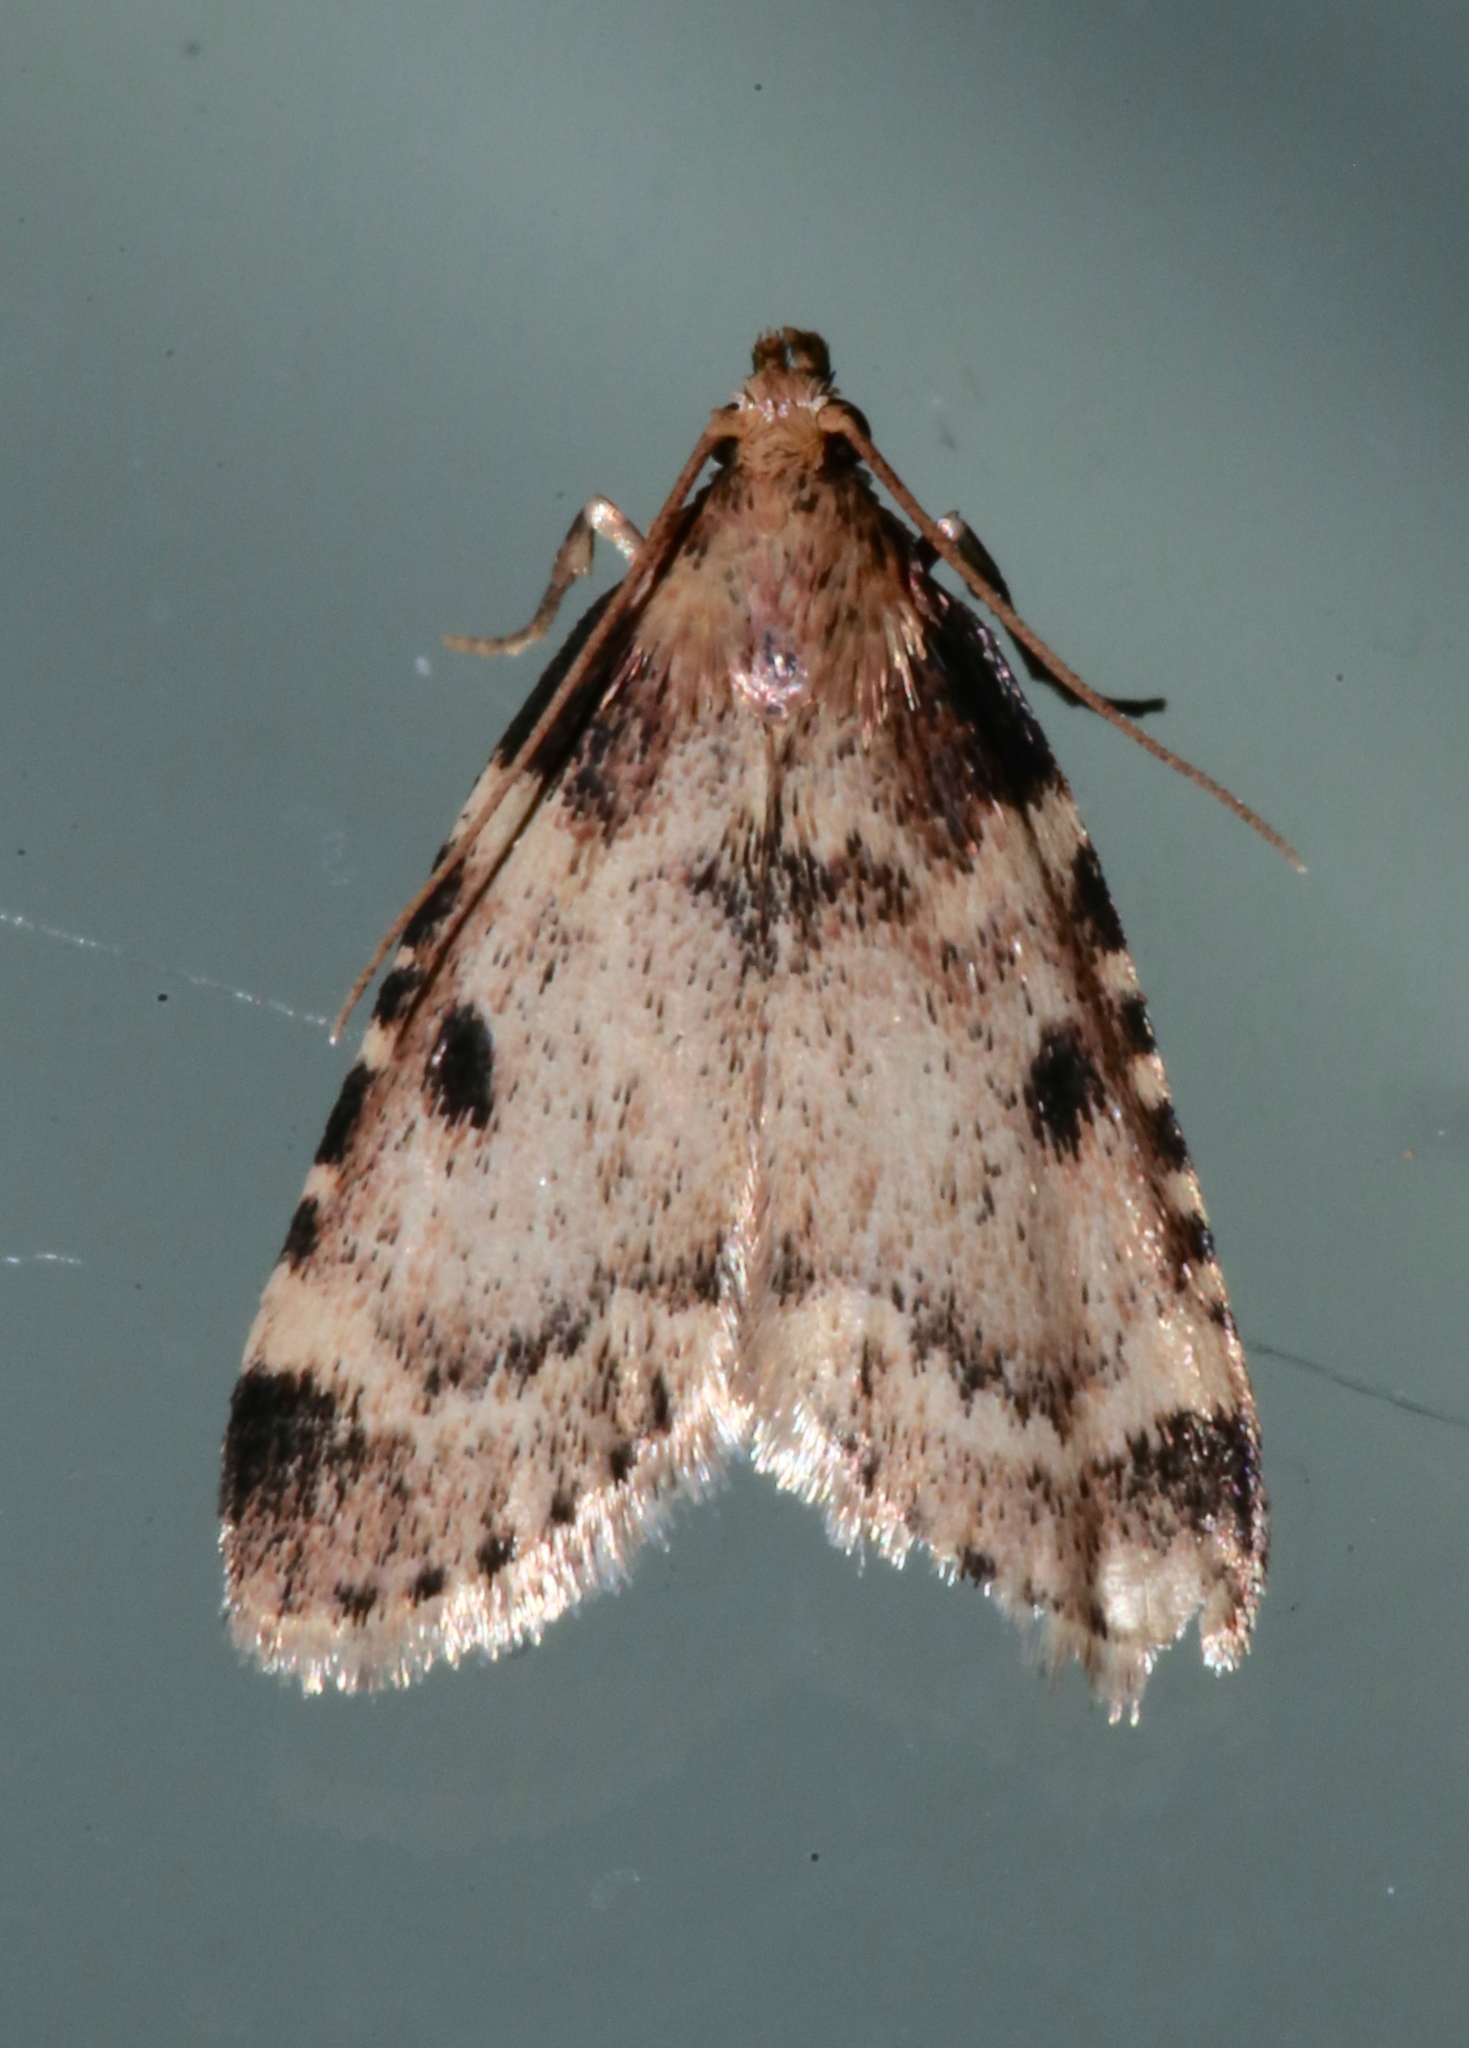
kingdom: Animalia
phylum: Arthropoda
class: Insecta
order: Lepidoptera
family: Pyralidae
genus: Aglossa
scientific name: Aglossa costiferalis
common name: Calico pyralid moth
